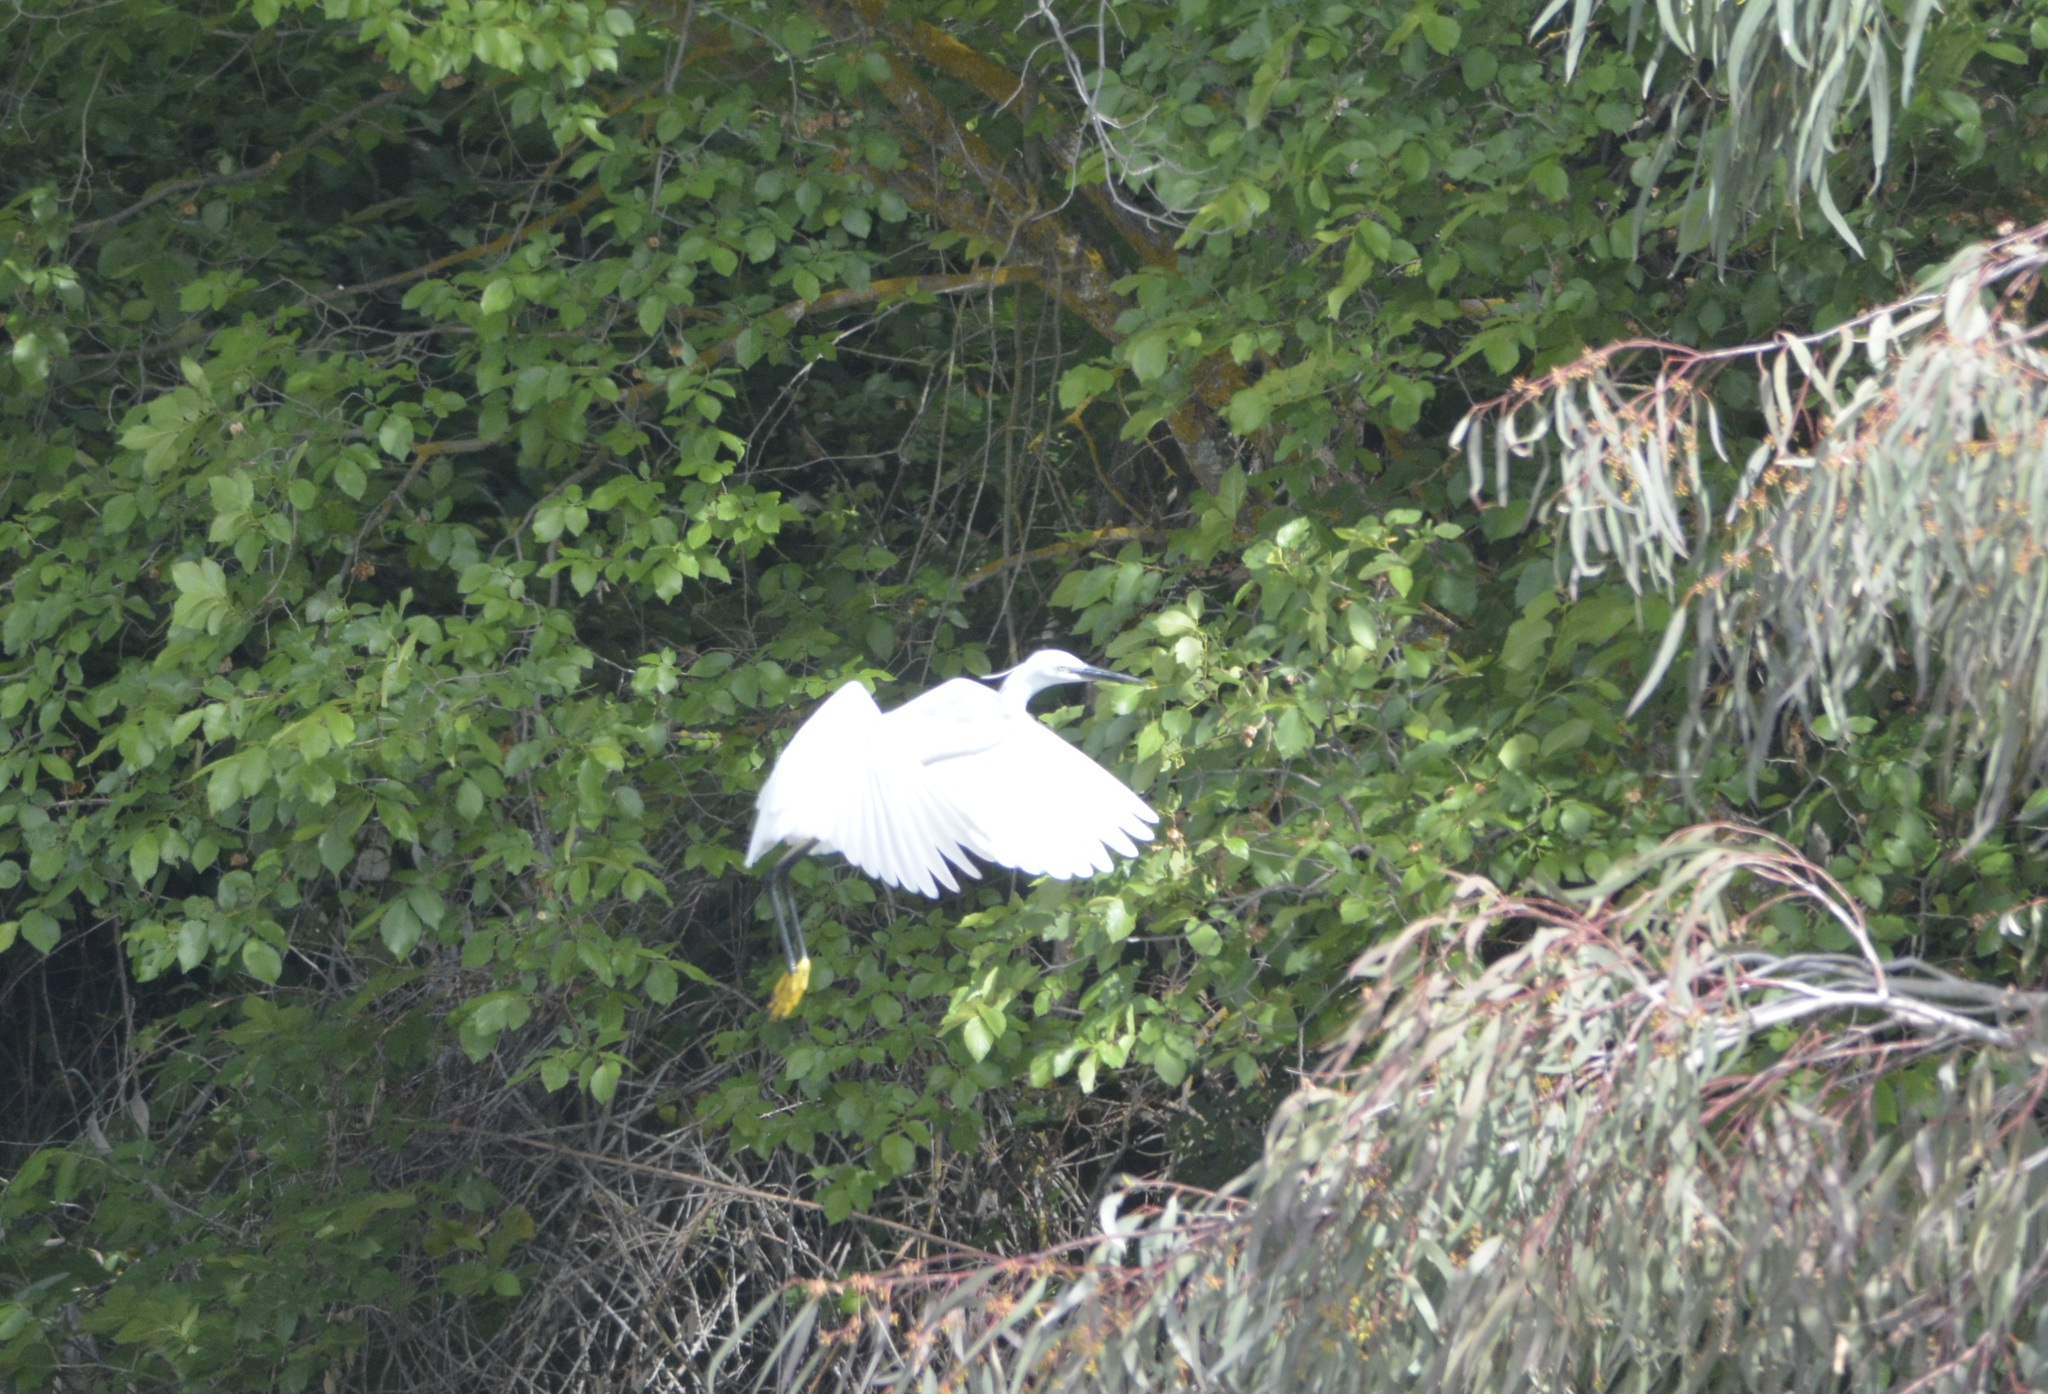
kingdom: Animalia
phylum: Chordata
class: Aves
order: Pelecaniformes
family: Ardeidae
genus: Egretta
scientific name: Egretta garzetta
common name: Little egret
